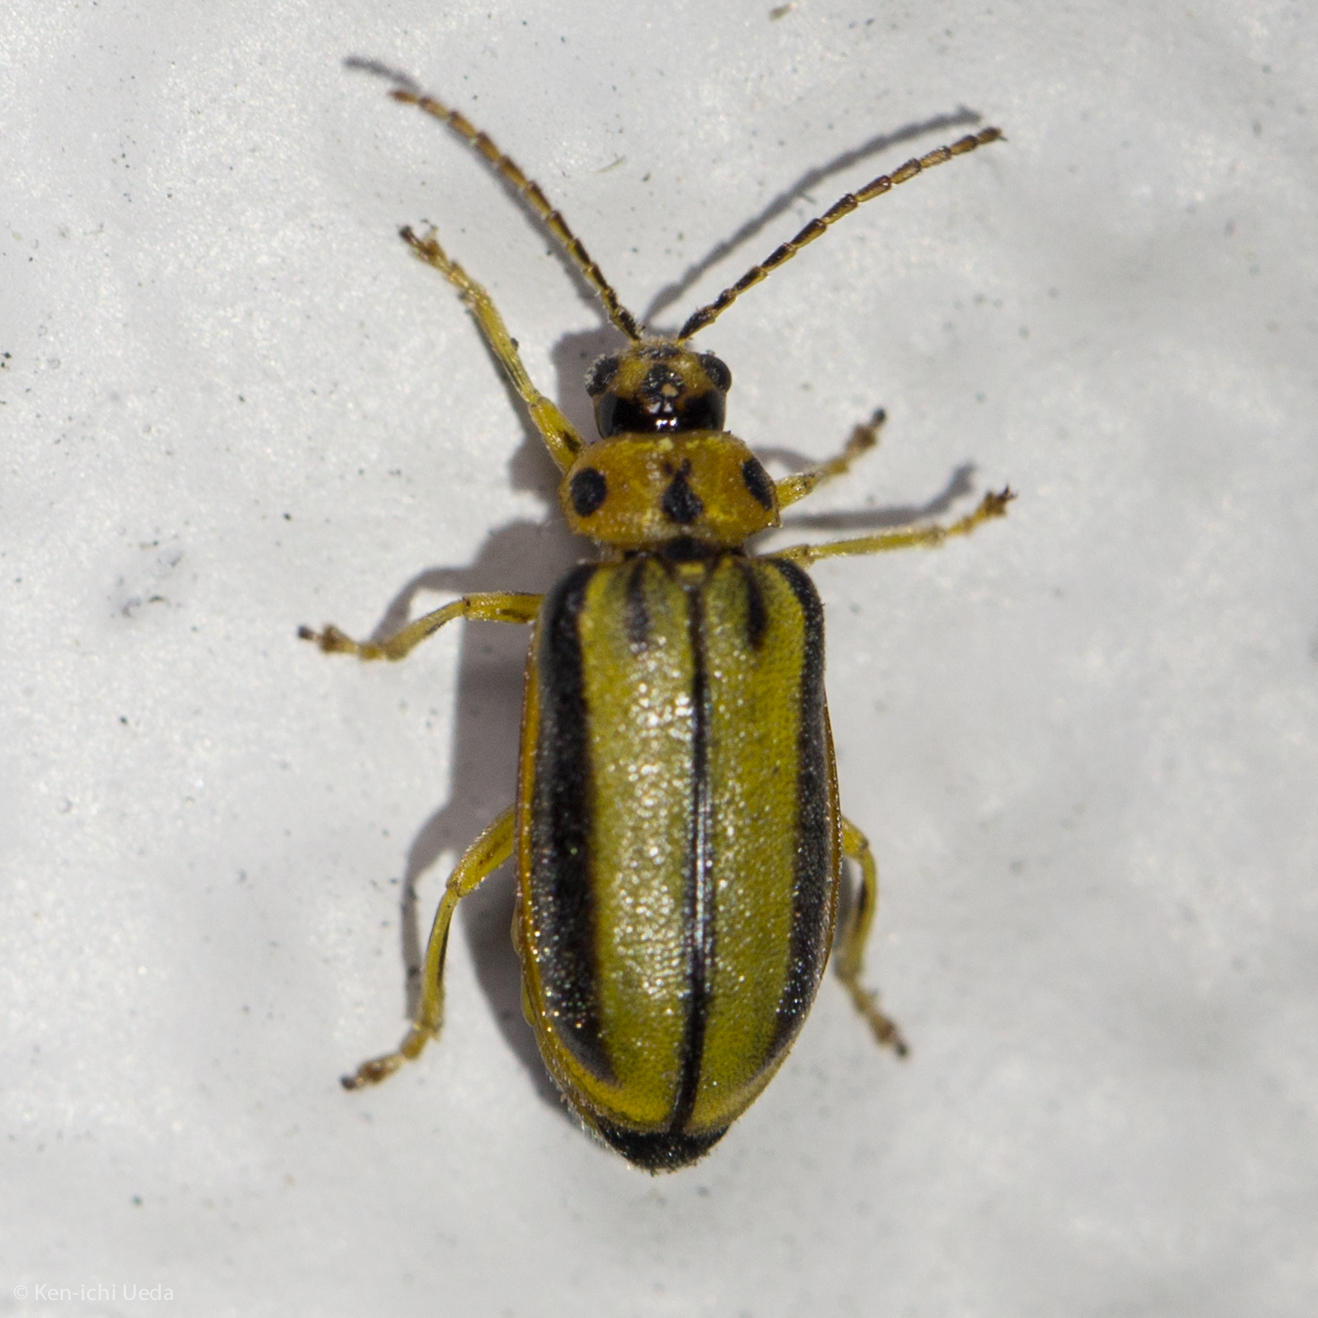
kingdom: Animalia
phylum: Arthropoda
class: Insecta
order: Coleoptera
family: Chrysomelidae
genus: Xanthogaleruca
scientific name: Xanthogaleruca luteola
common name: Elm leaf beetle
